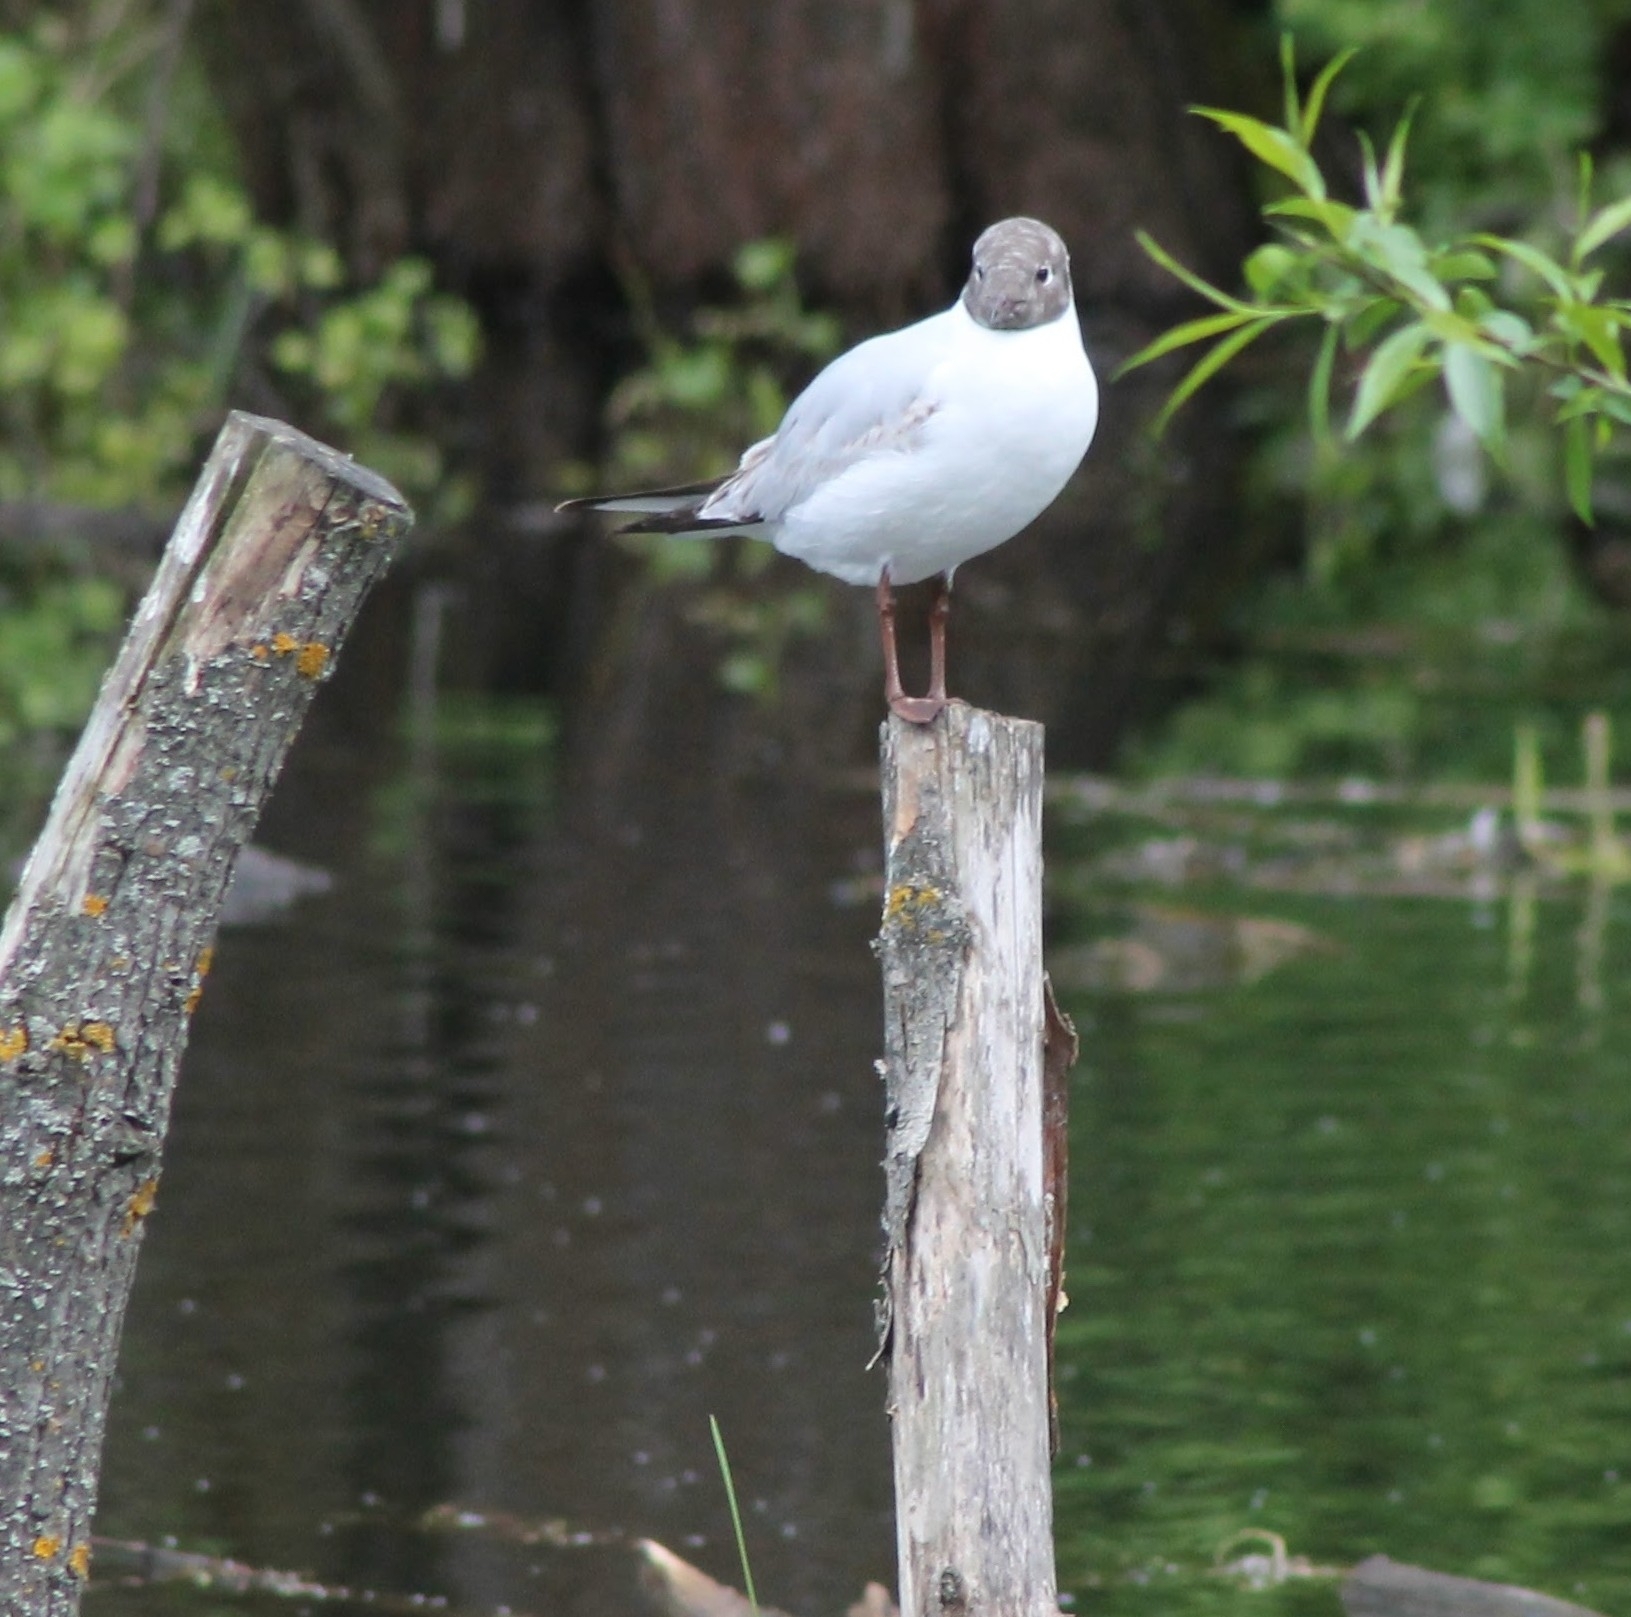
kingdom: Animalia
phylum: Chordata
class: Aves
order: Charadriiformes
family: Laridae
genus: Chroicocephalus
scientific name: Chroicocephalus ridibundus
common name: Black-headed gull
